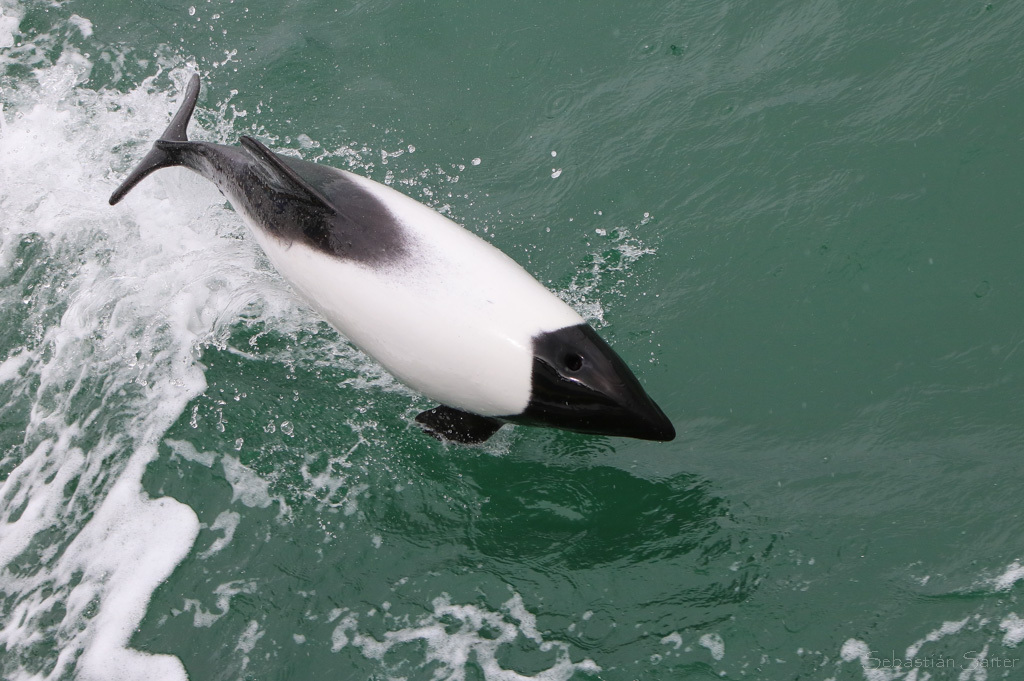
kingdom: Animalia
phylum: Chordata
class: Mammalia
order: Cetacea
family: Delphinidae
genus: Cephalorhynchus
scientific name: Cephalorhynchus commersonii
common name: Commerson's dolphin
